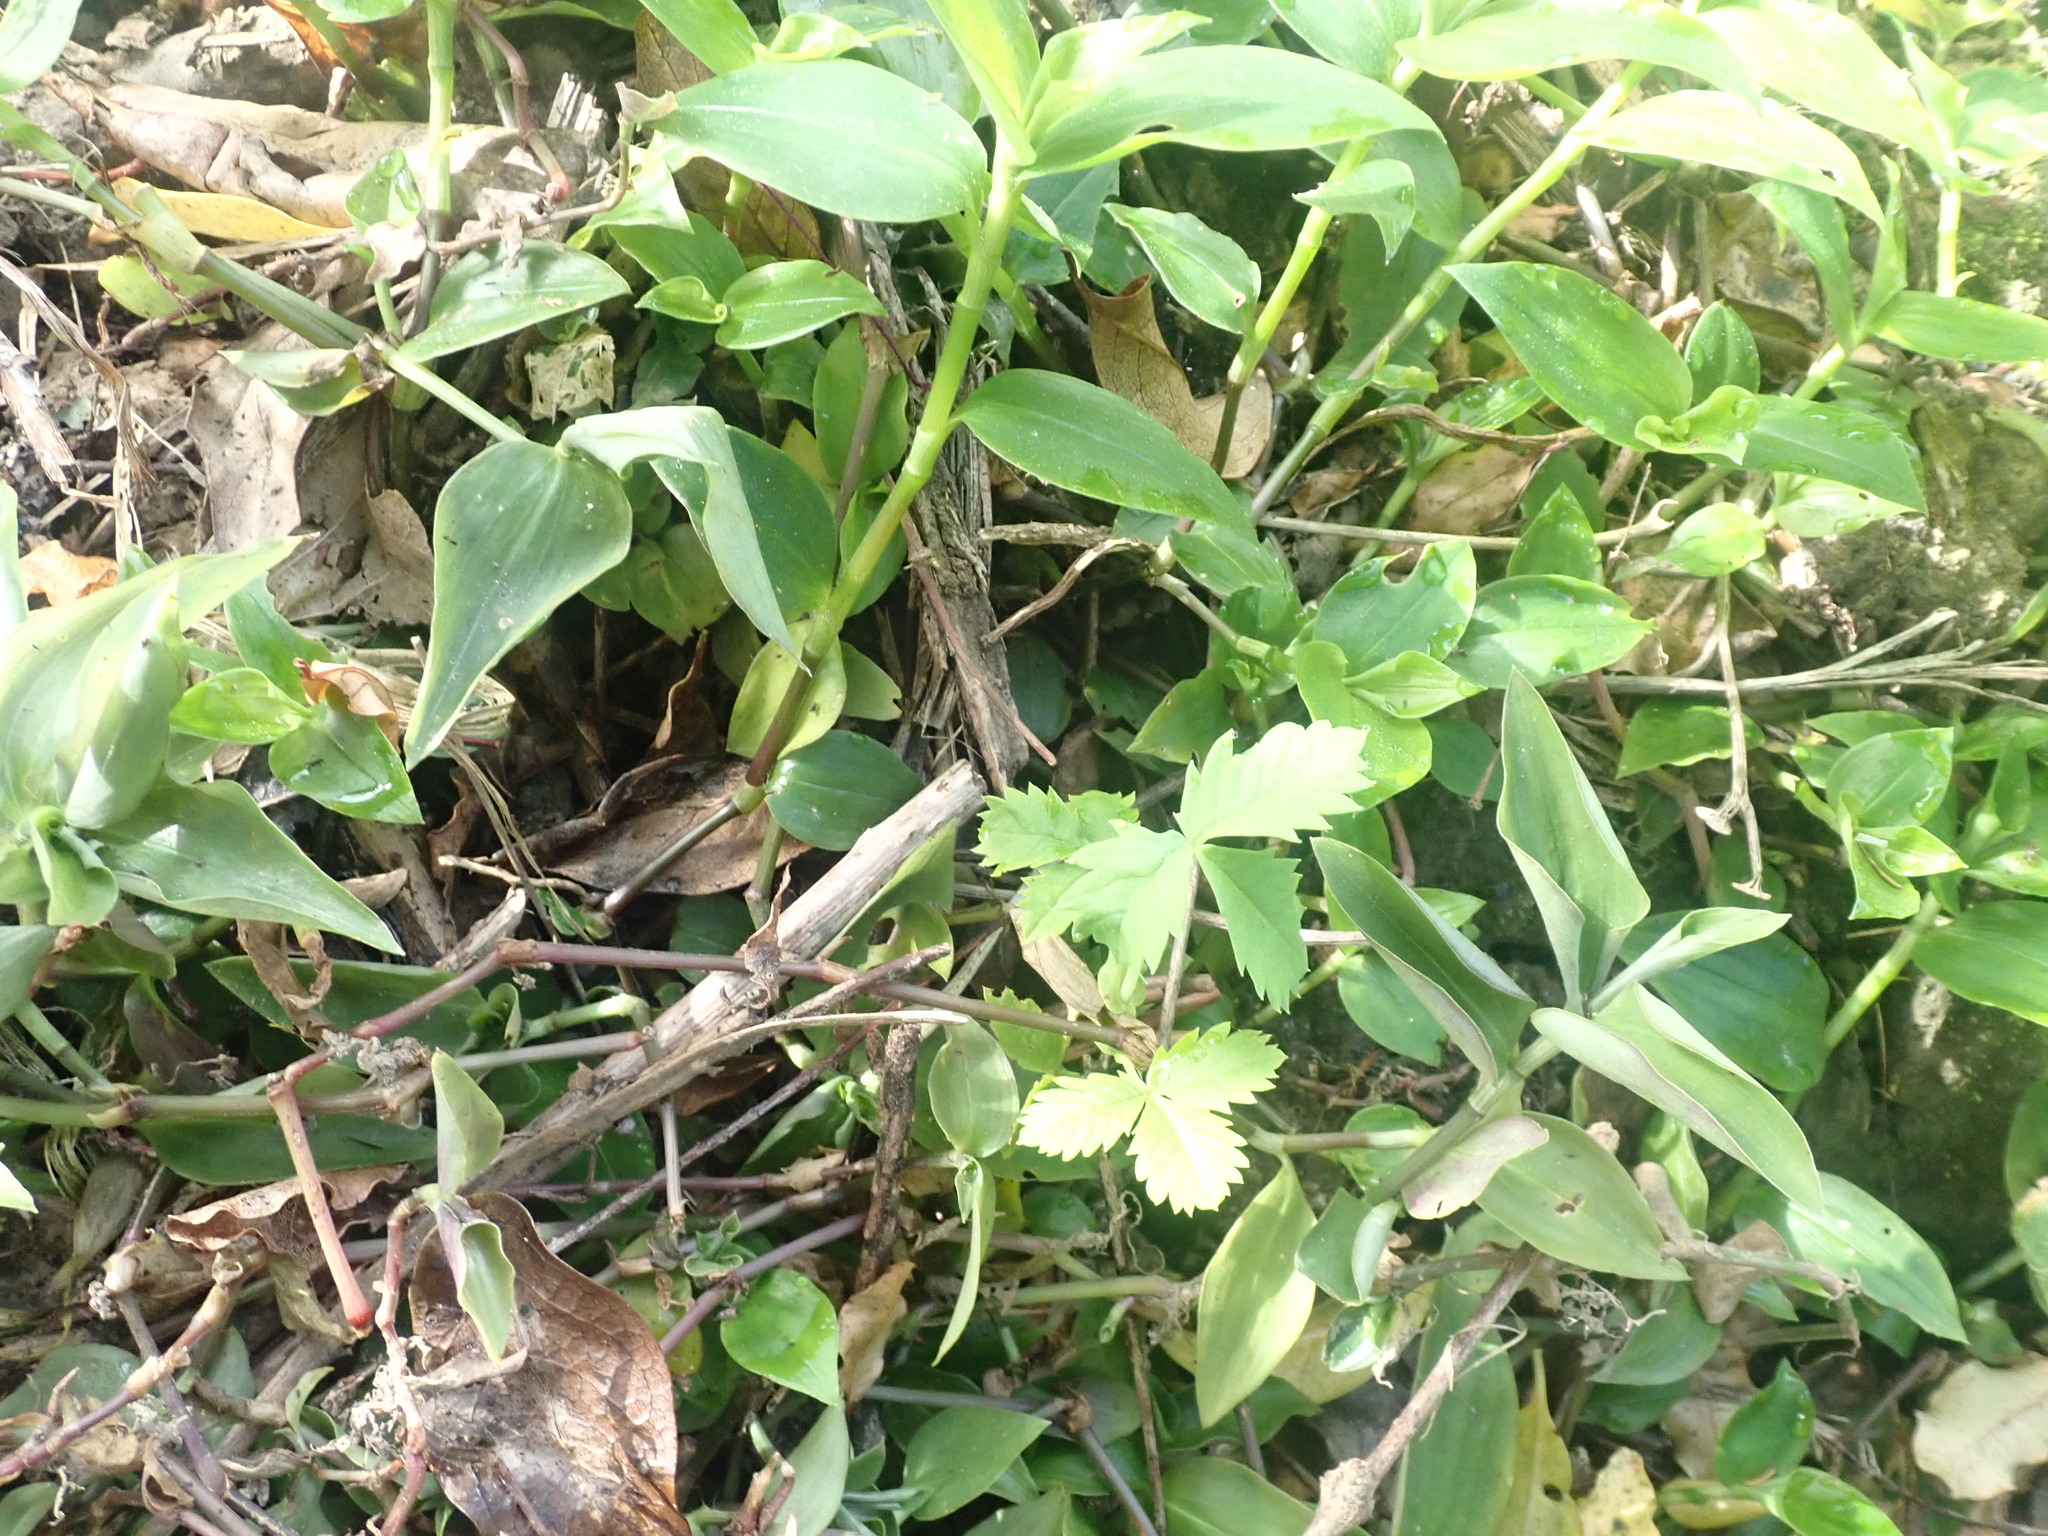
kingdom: Plantae
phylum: Tracheophyta
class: Magnoliopsida
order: Geraniales
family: Melianthaceae
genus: Melianthus
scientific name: Melianthus major
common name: Honey-flower
